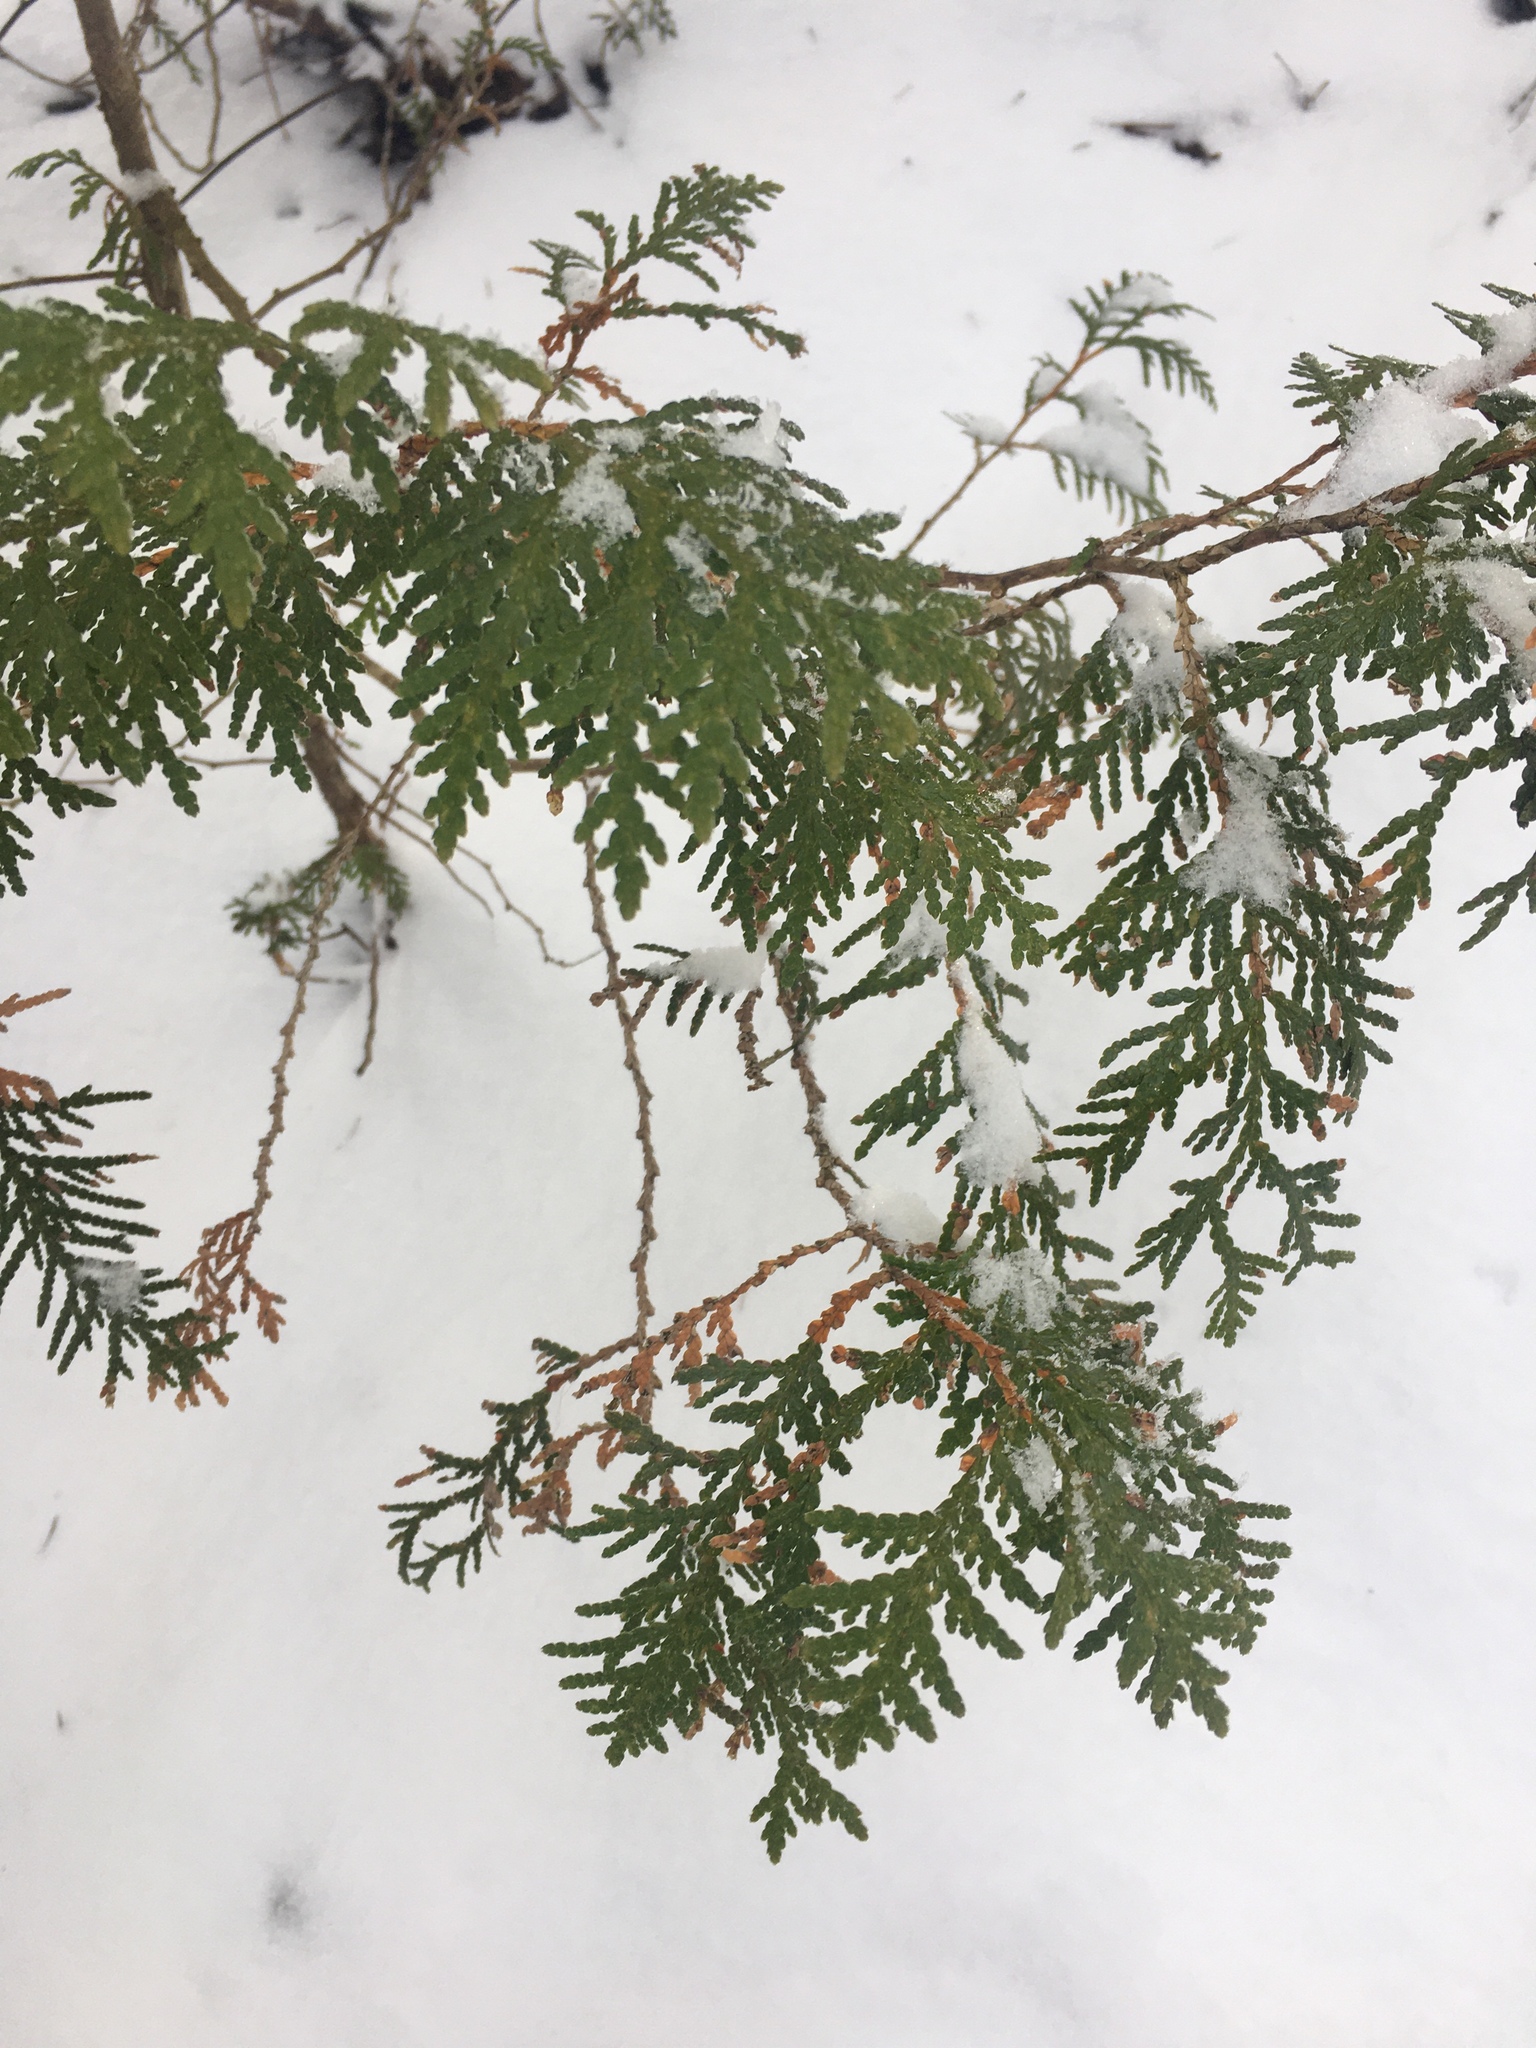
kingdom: Plantae
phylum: Tracheophyta
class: Pinopsida
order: Pinales
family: Cupressaceae
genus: Thuja
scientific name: Thuja occidentalis
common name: Northern white-cedar
